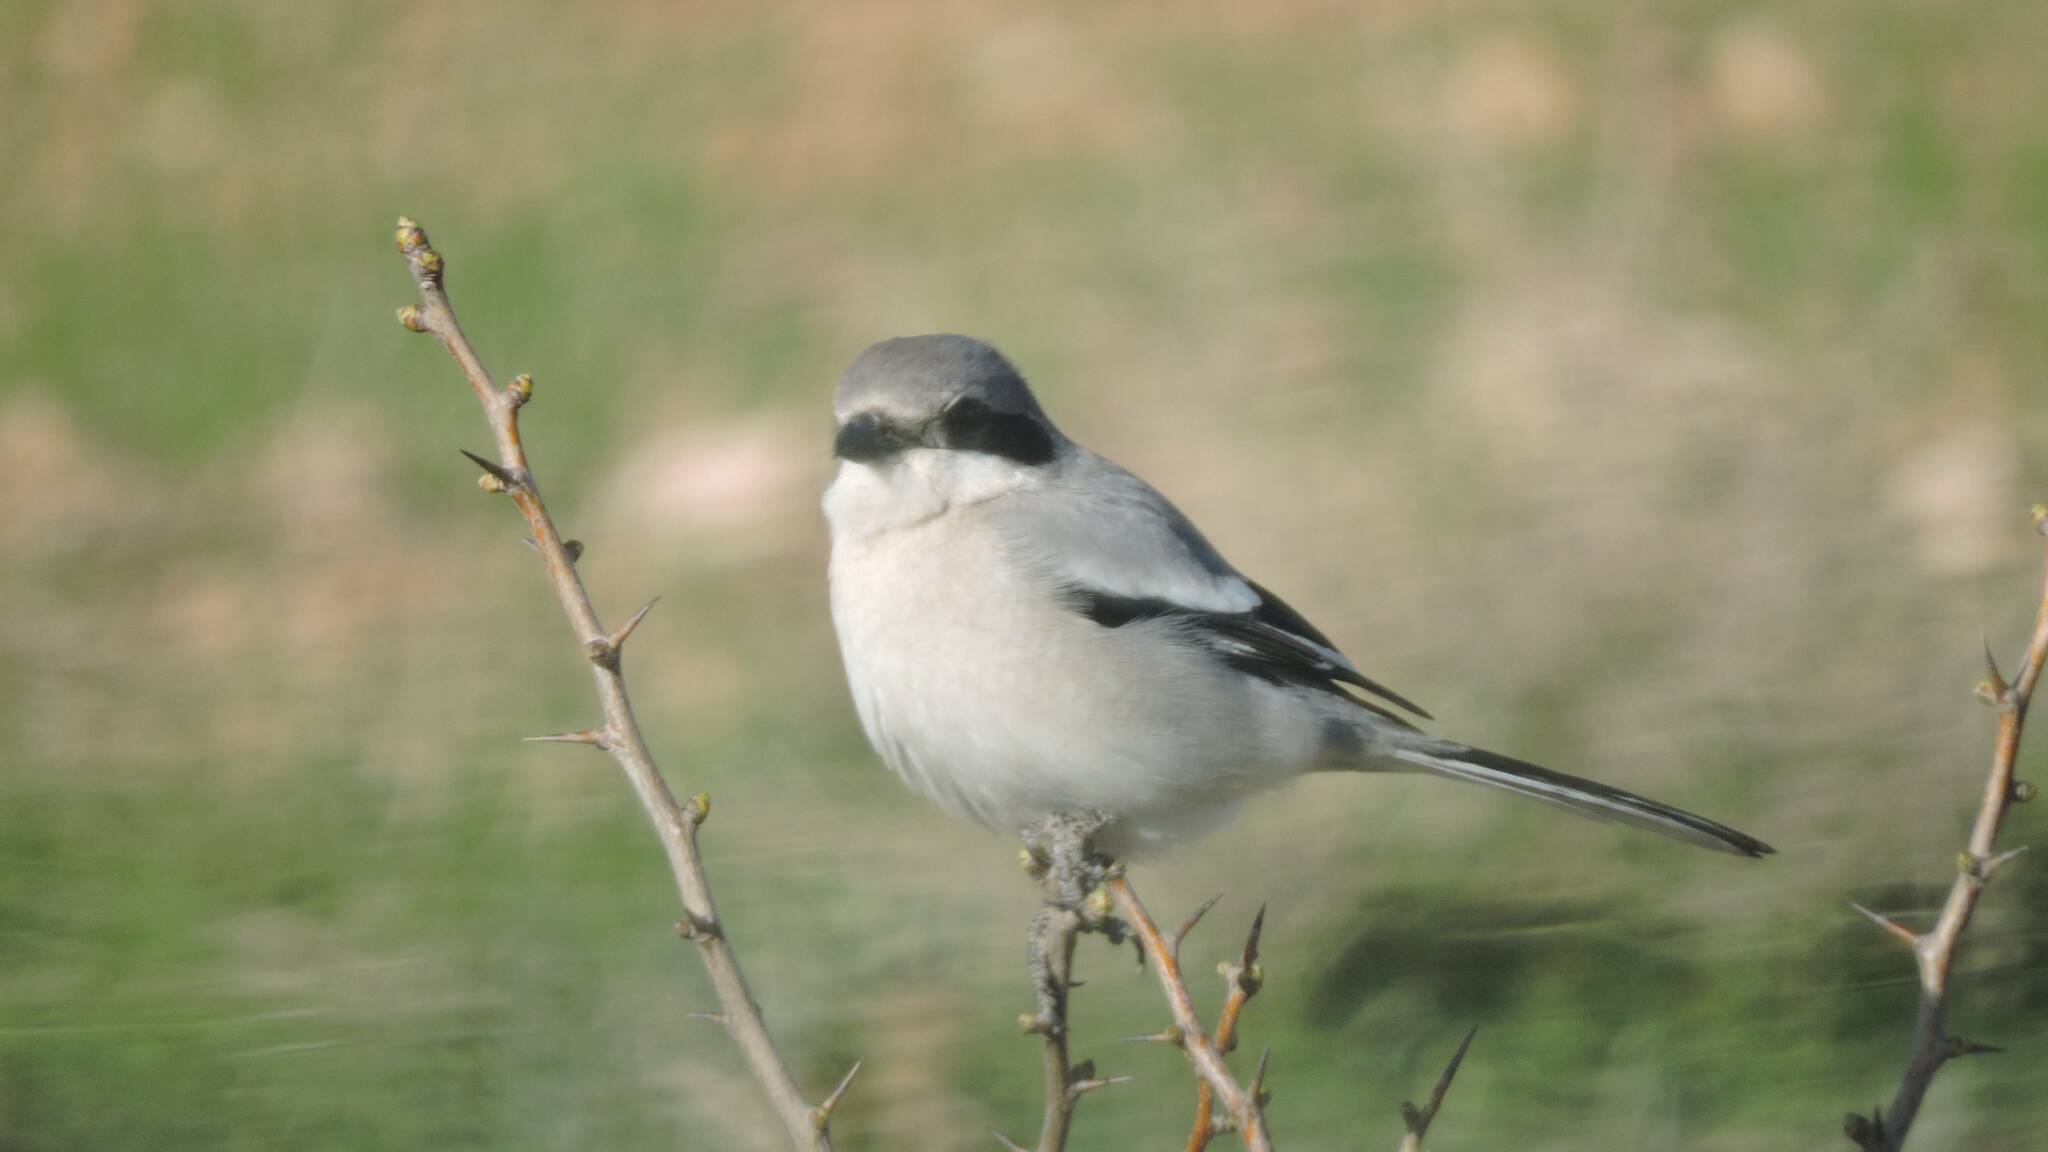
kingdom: Animalia
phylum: Chordata
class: Aves
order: Passeriformes
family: Laniidae
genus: Lanius
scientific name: Lanius excubitor
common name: Great grey shrike
